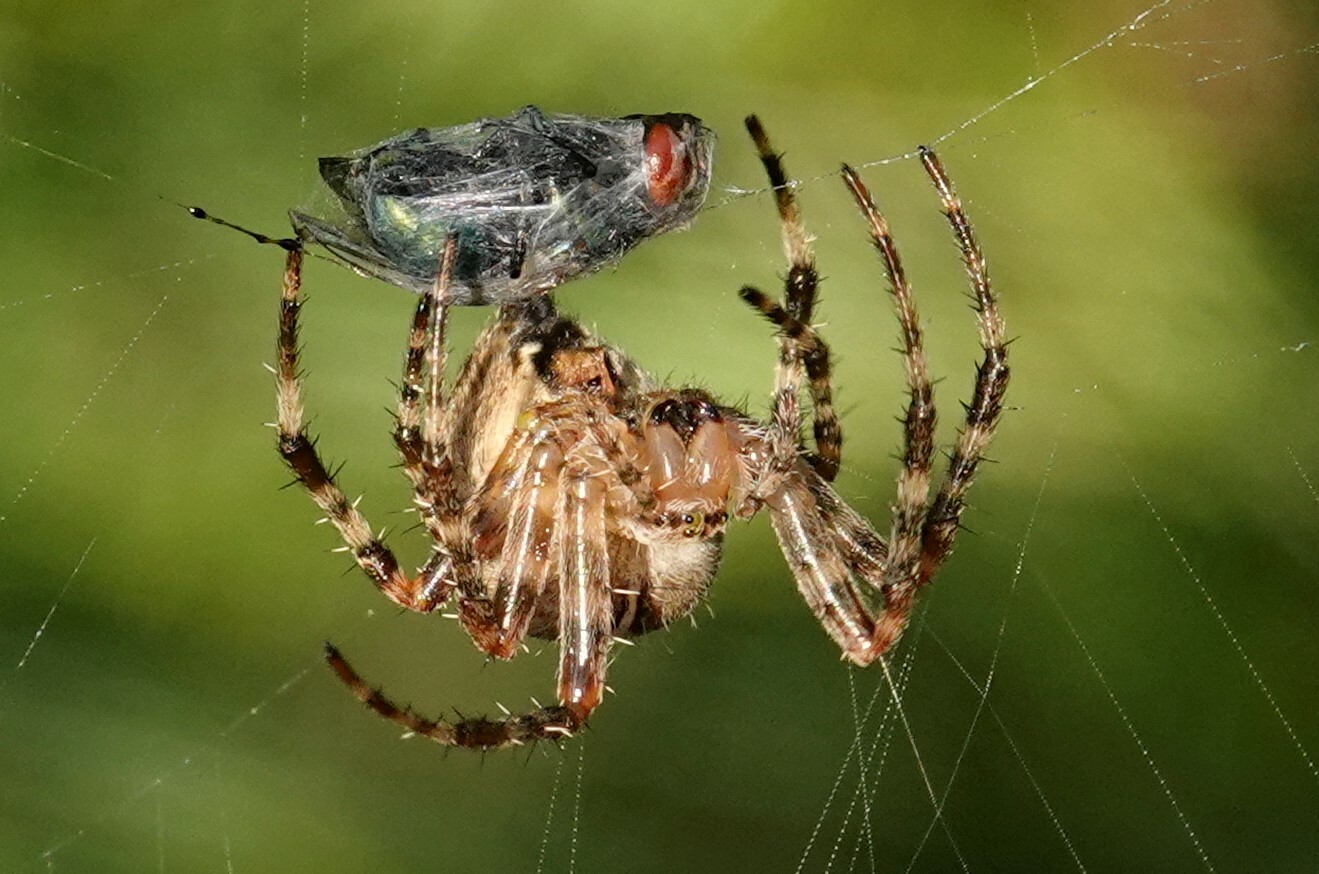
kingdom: Animalia
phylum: Arthropoda
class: Arachnida
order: Araneae
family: Araneidae
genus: Araneus
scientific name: Araneus diadematus
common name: Cross orbweaver
